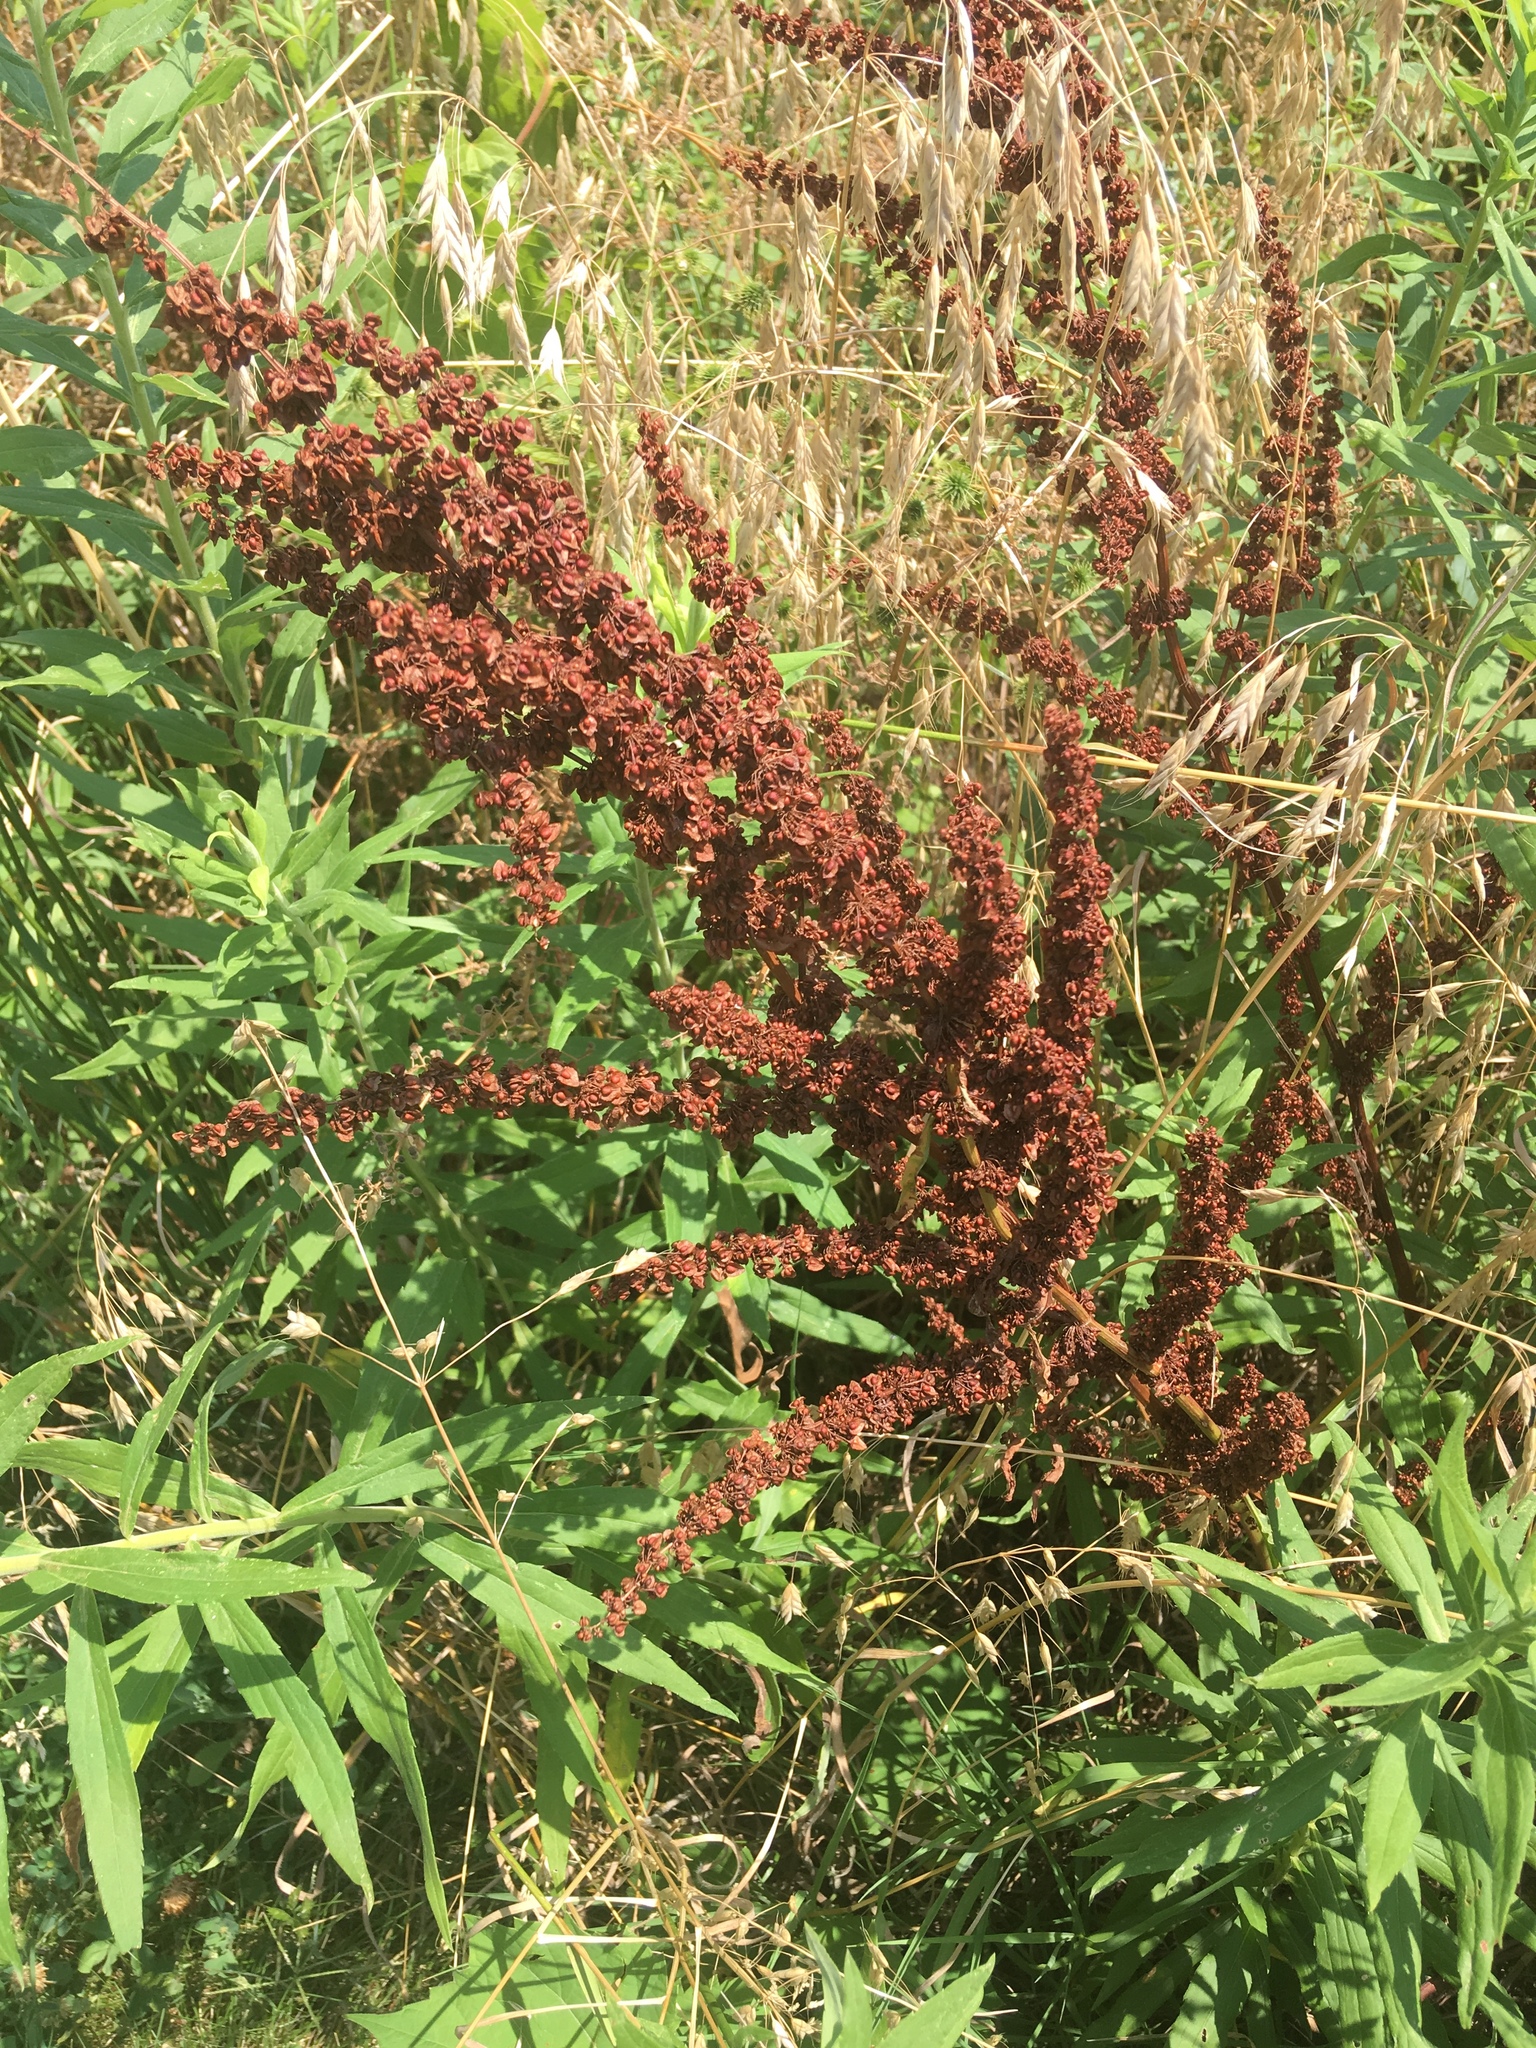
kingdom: Plantae
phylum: Tracheophyta
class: Magnoliopsida
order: Caryophyllales
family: Polygonaceae
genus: Rumex
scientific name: Rumex crispus
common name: Curled dock
